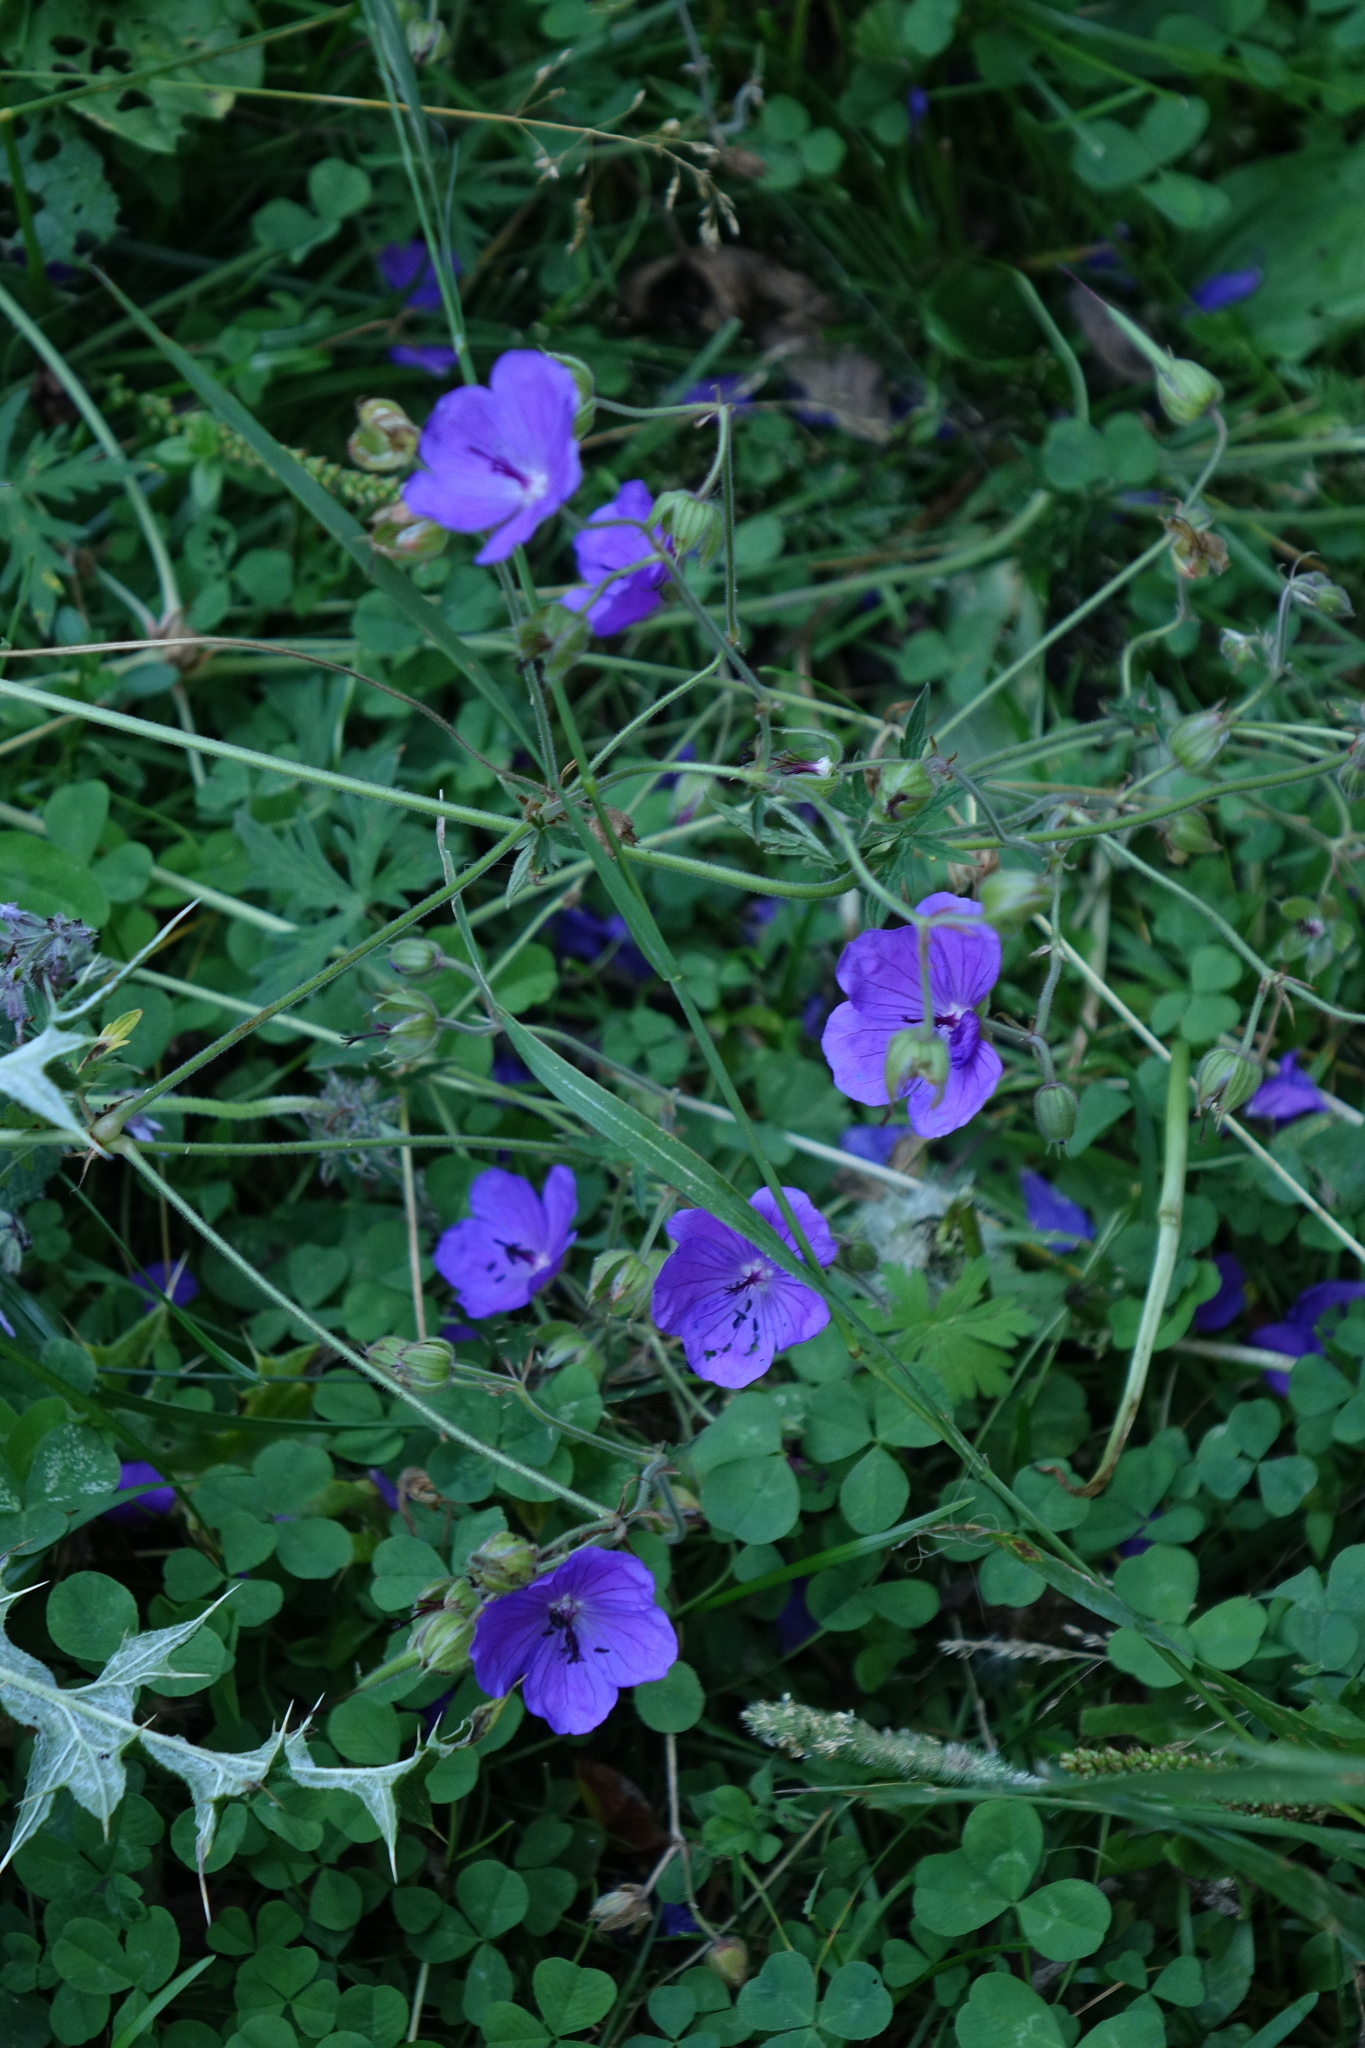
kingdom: Plantae
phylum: Tracheophyta
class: Magnoliopsida
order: Geraniales
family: Geraniaceae
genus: Geranium
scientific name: Geranium ruprechtii
